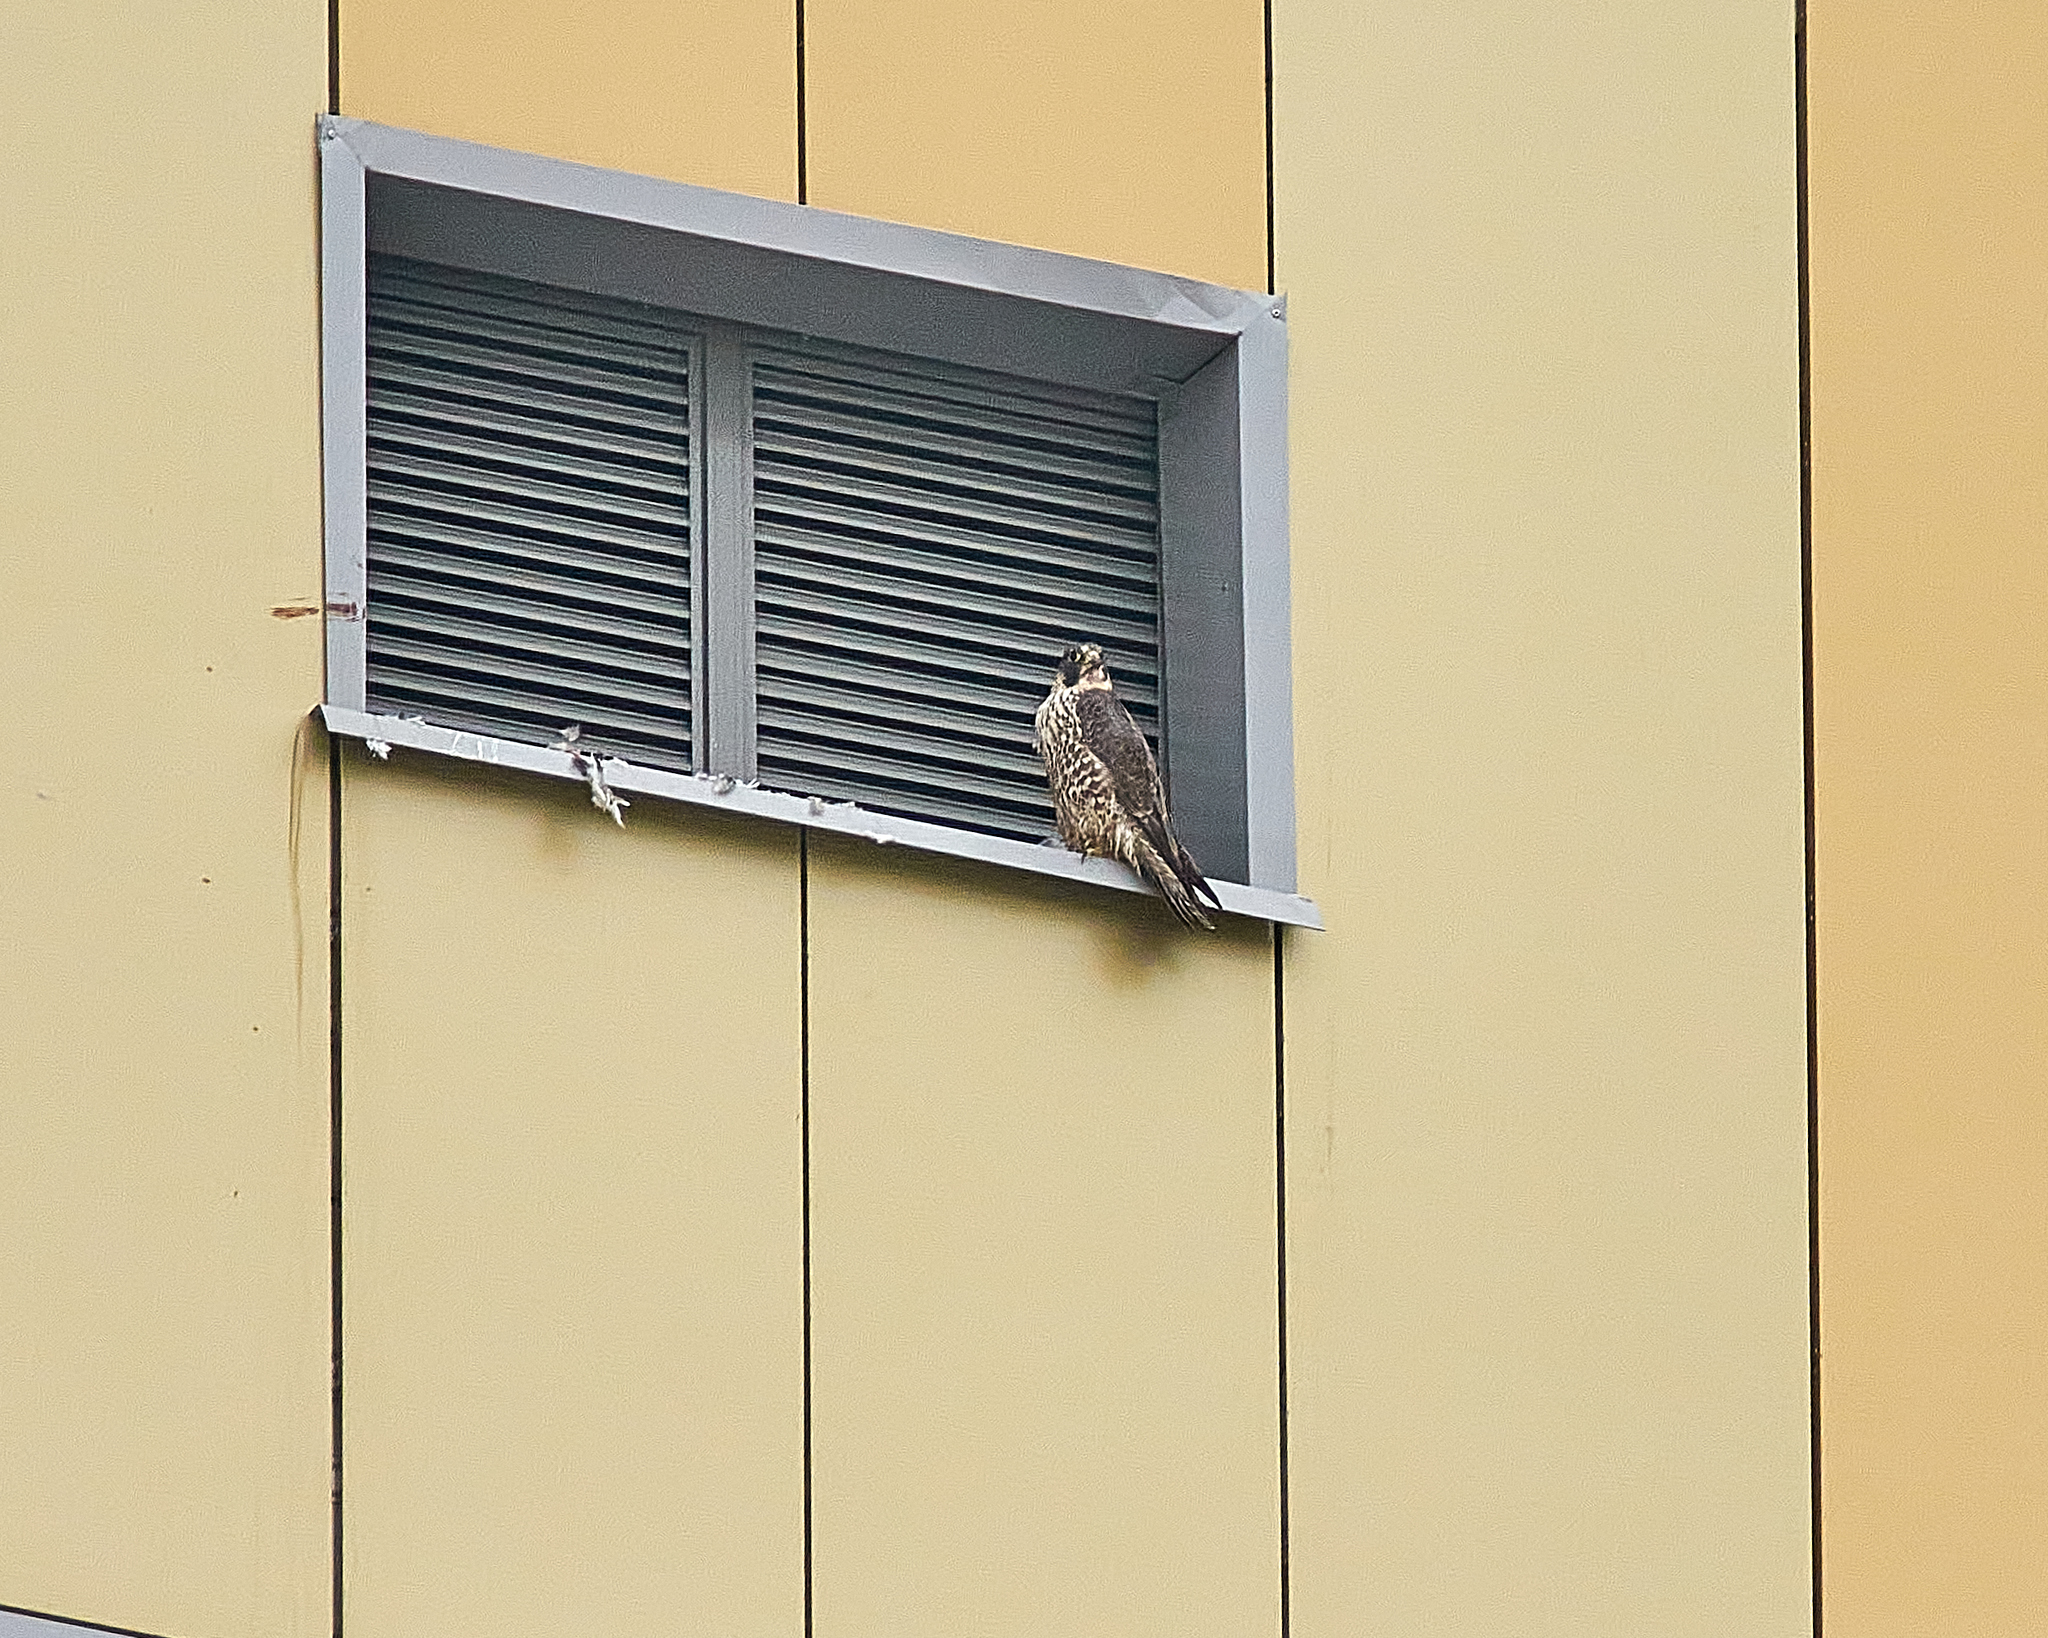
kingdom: Animalia
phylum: Chordata
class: Aves
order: Falconiformes
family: Falconidae
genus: Falco
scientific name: Falco peregrinus
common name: Peregrine falcon
